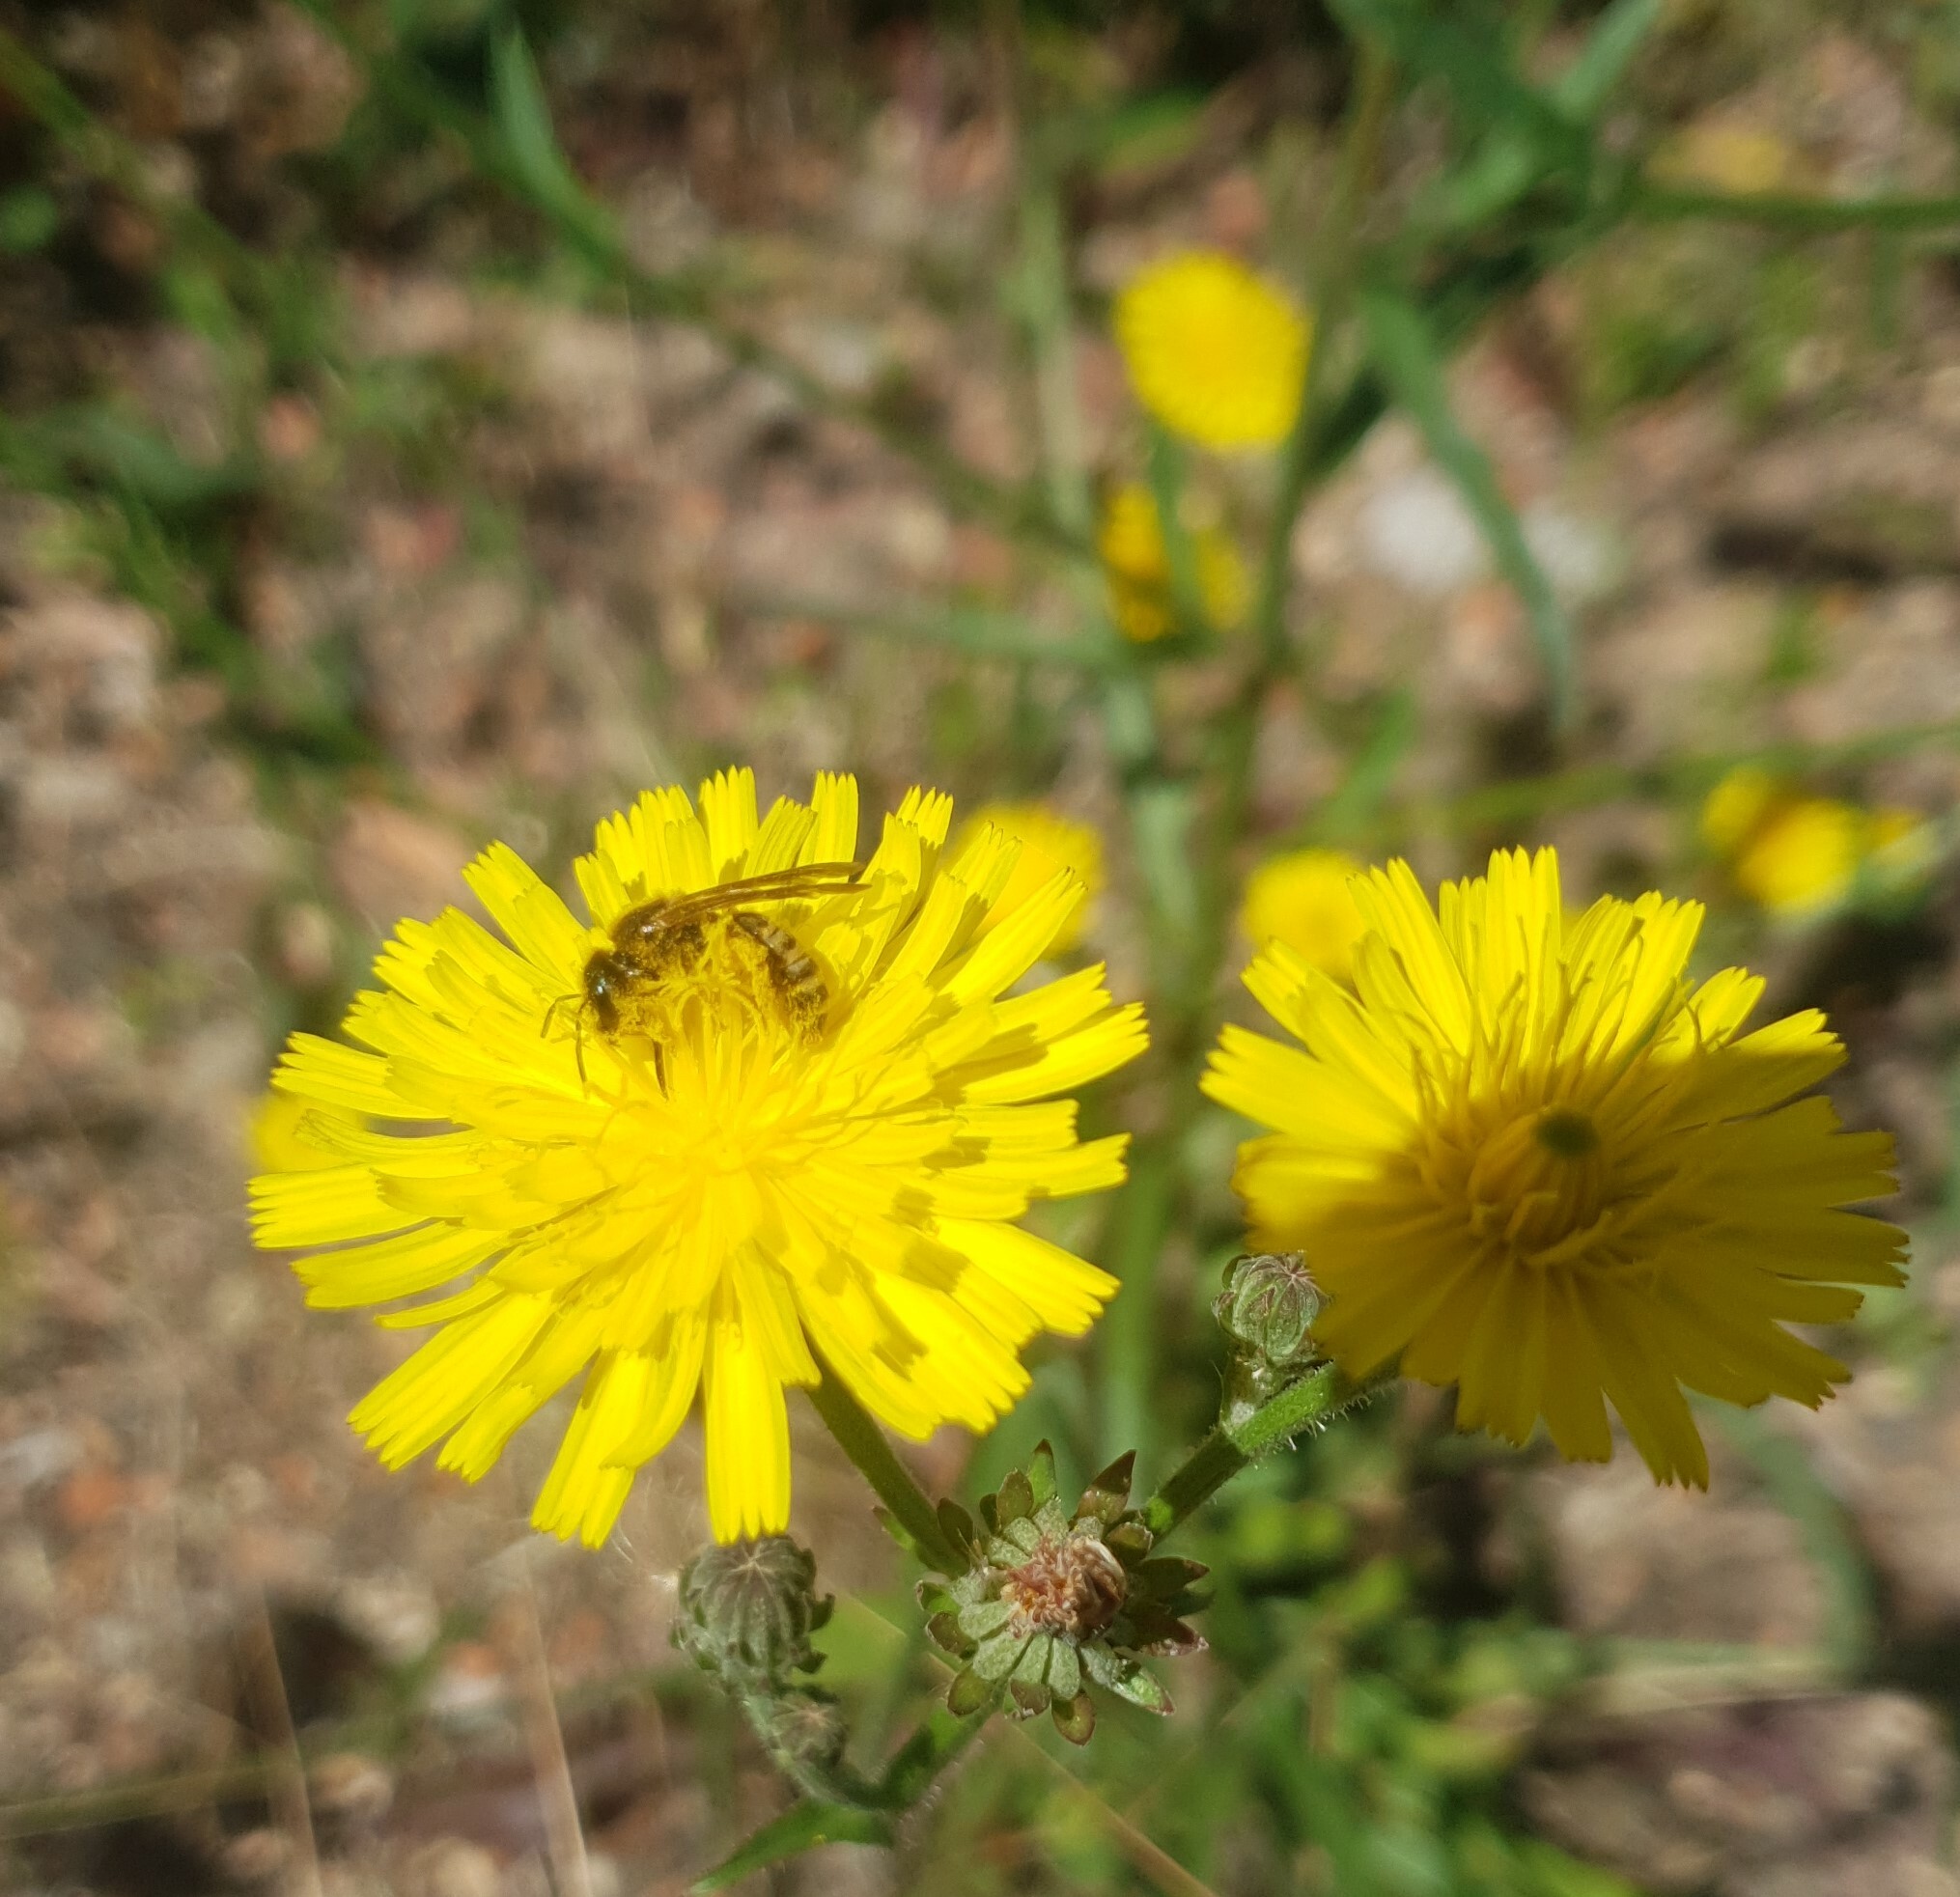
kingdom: Animalia
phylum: Arthropoda
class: Insecta
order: Hymenoptera
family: Halictidae
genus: Halictus
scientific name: Halictus scabiosae
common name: Great banded furrow bee
